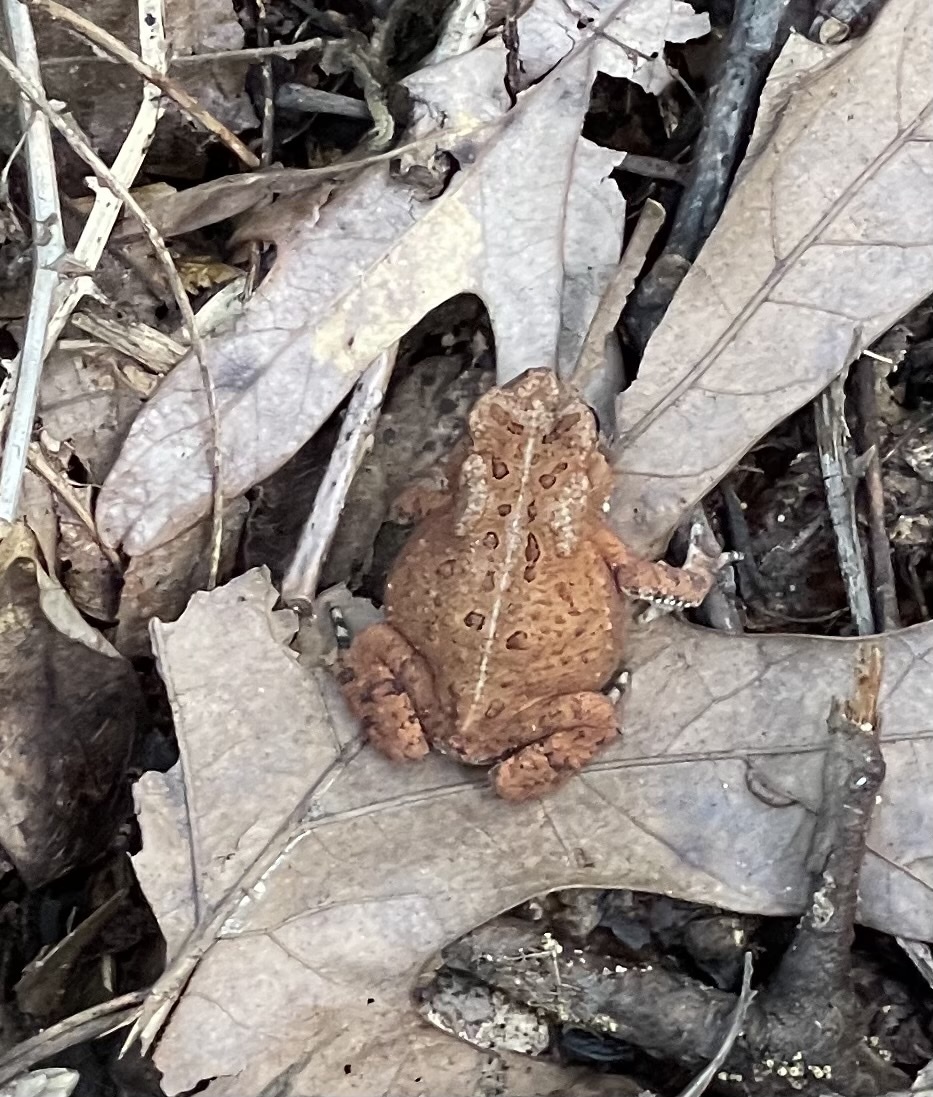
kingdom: Animalia
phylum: Chordata
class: Amphibia
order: Anura
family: Bufonidae
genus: Anaxyrus
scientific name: Anaxyrus americanus
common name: American toad
